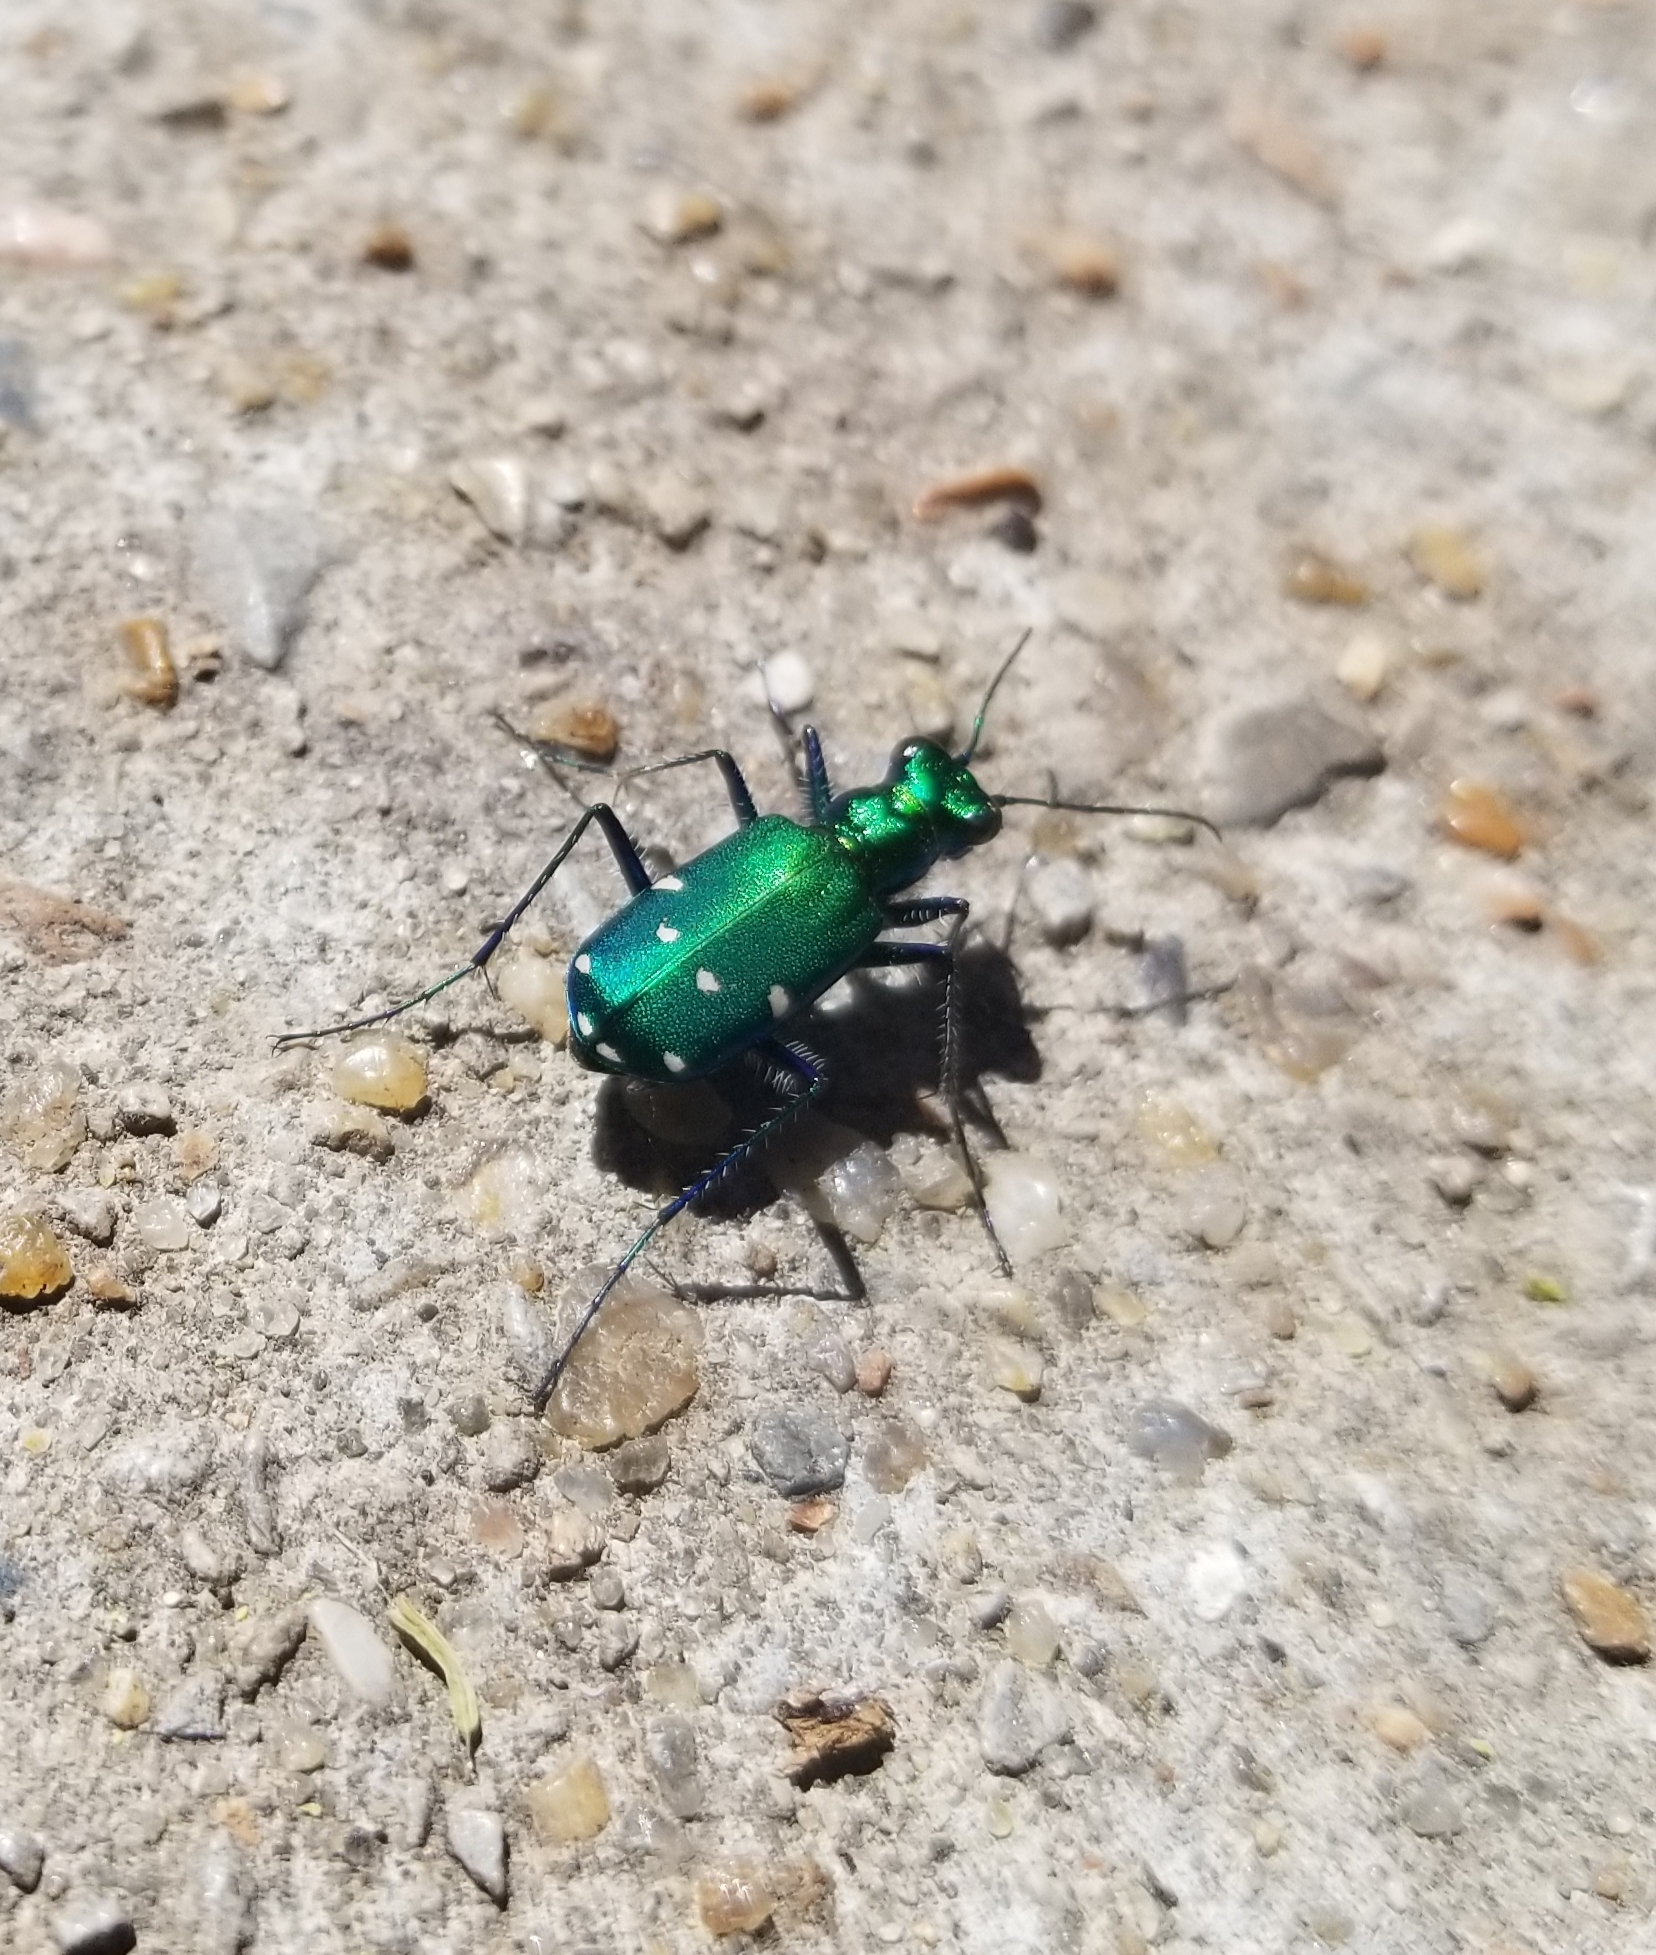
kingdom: Animalia
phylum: Arthropoda
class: Insecta
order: Coleoptera
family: Carabidae
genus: Cicindela
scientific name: Cicindela sexguttata
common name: Six-spotted tiger beetle
